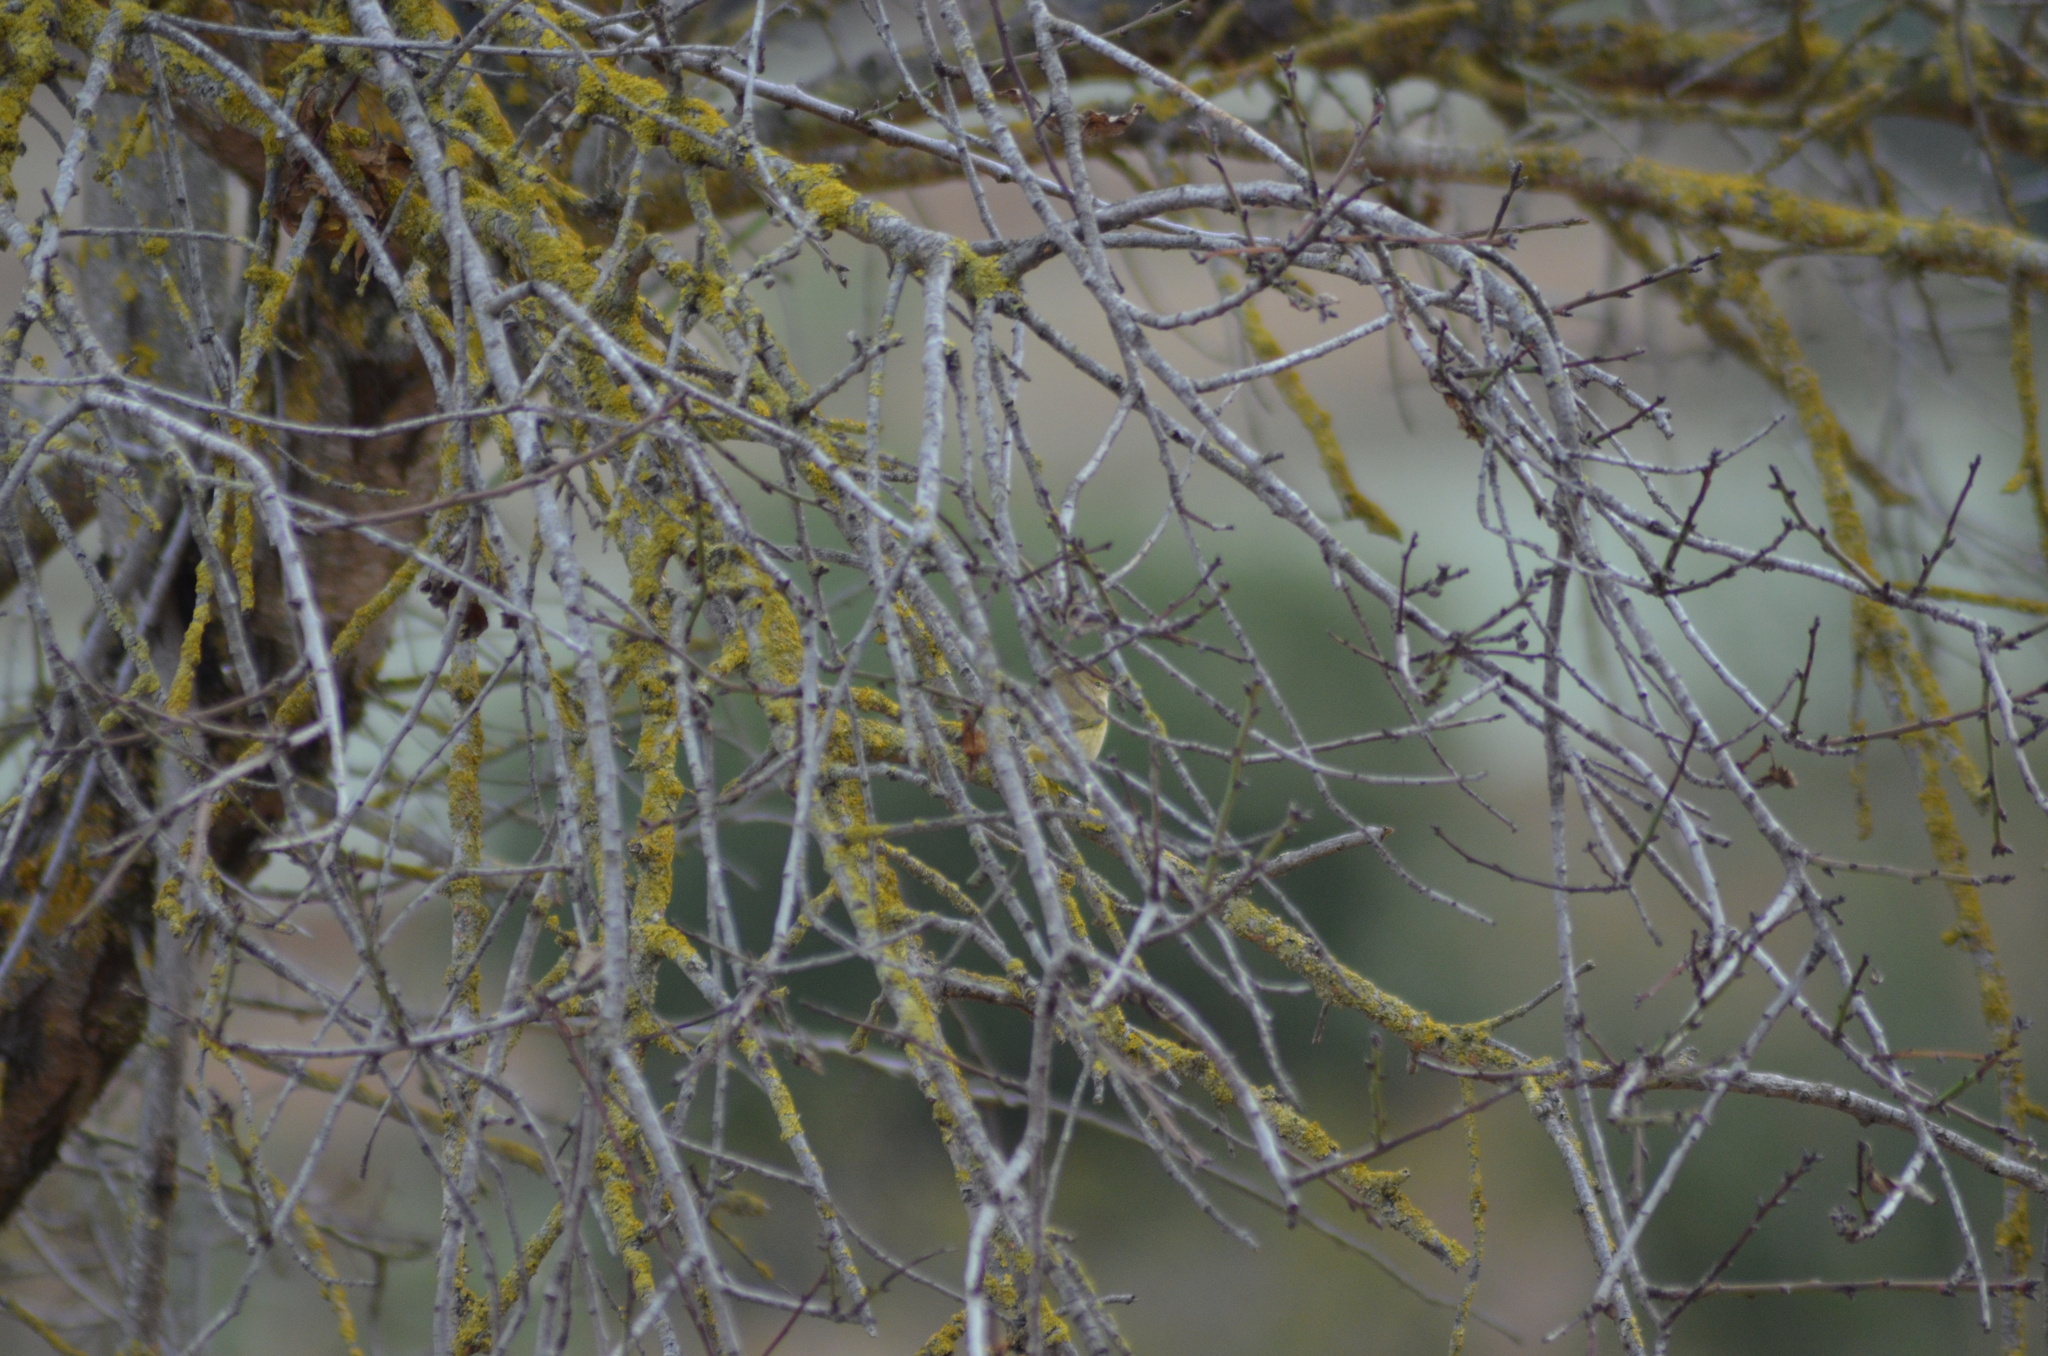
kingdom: Animalia
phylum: Chordata
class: Aves
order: Passeriformes
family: Phylloscopidae
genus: Phylloscopus
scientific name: Phylloscopus collybita
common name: Common chiffchaff
